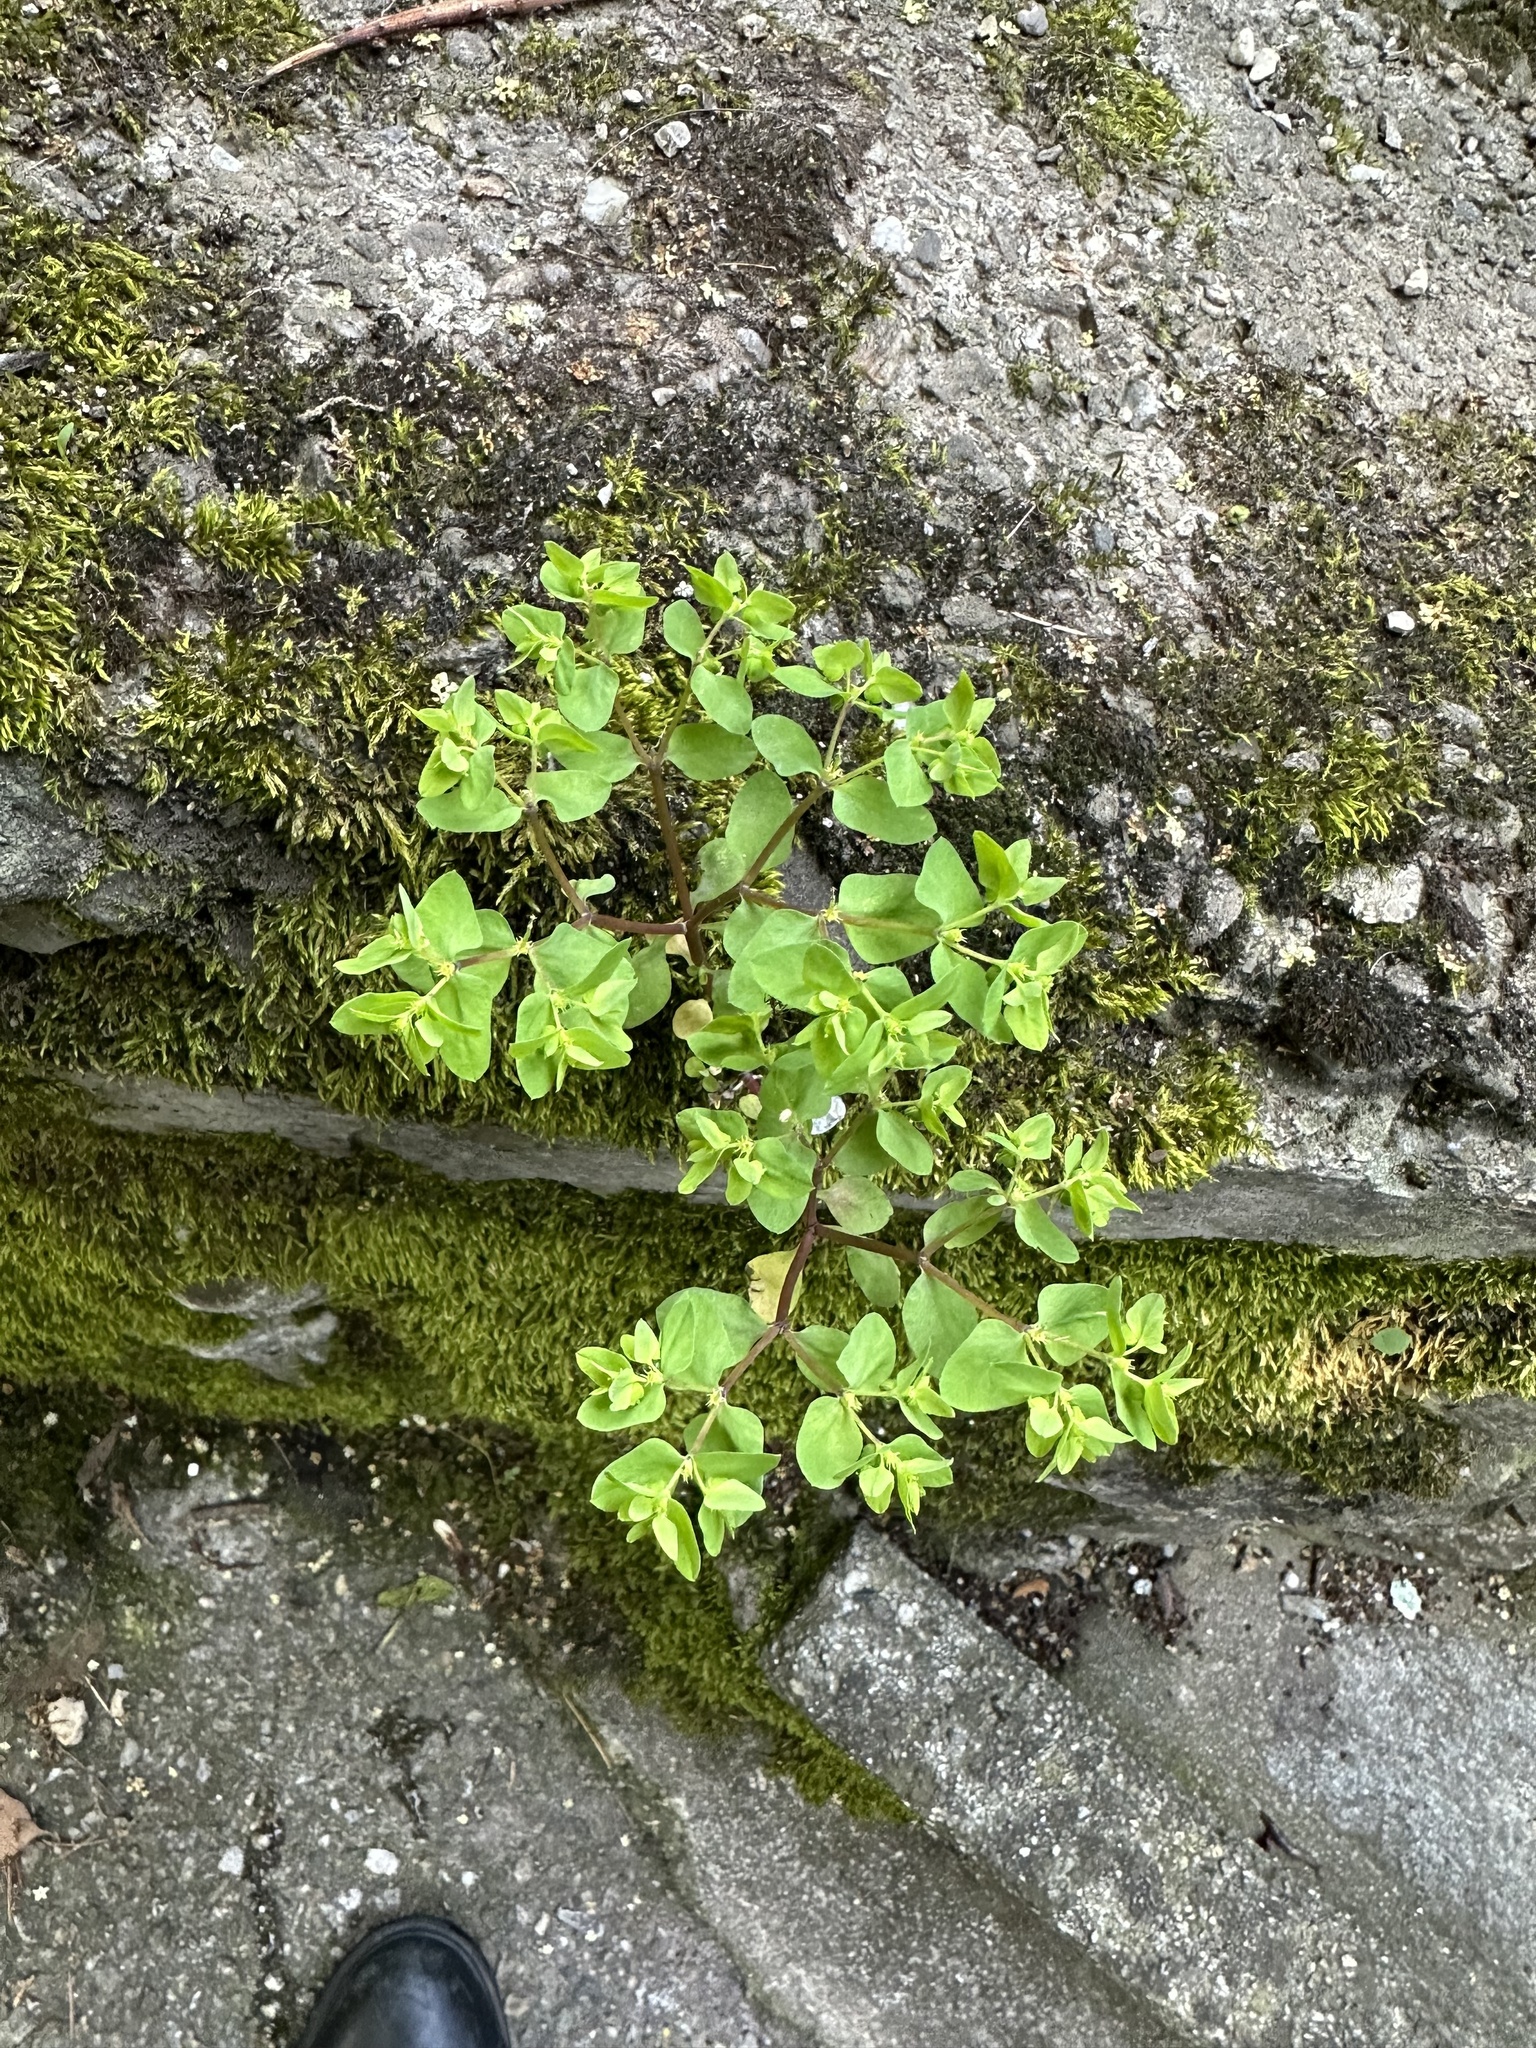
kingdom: Plantae
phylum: Tracheophyta
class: Magnoliopsida
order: Malpighiales
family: Euphorbiaceae
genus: Euphorbia
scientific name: Euphorbia peplus
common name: Petty spurge
